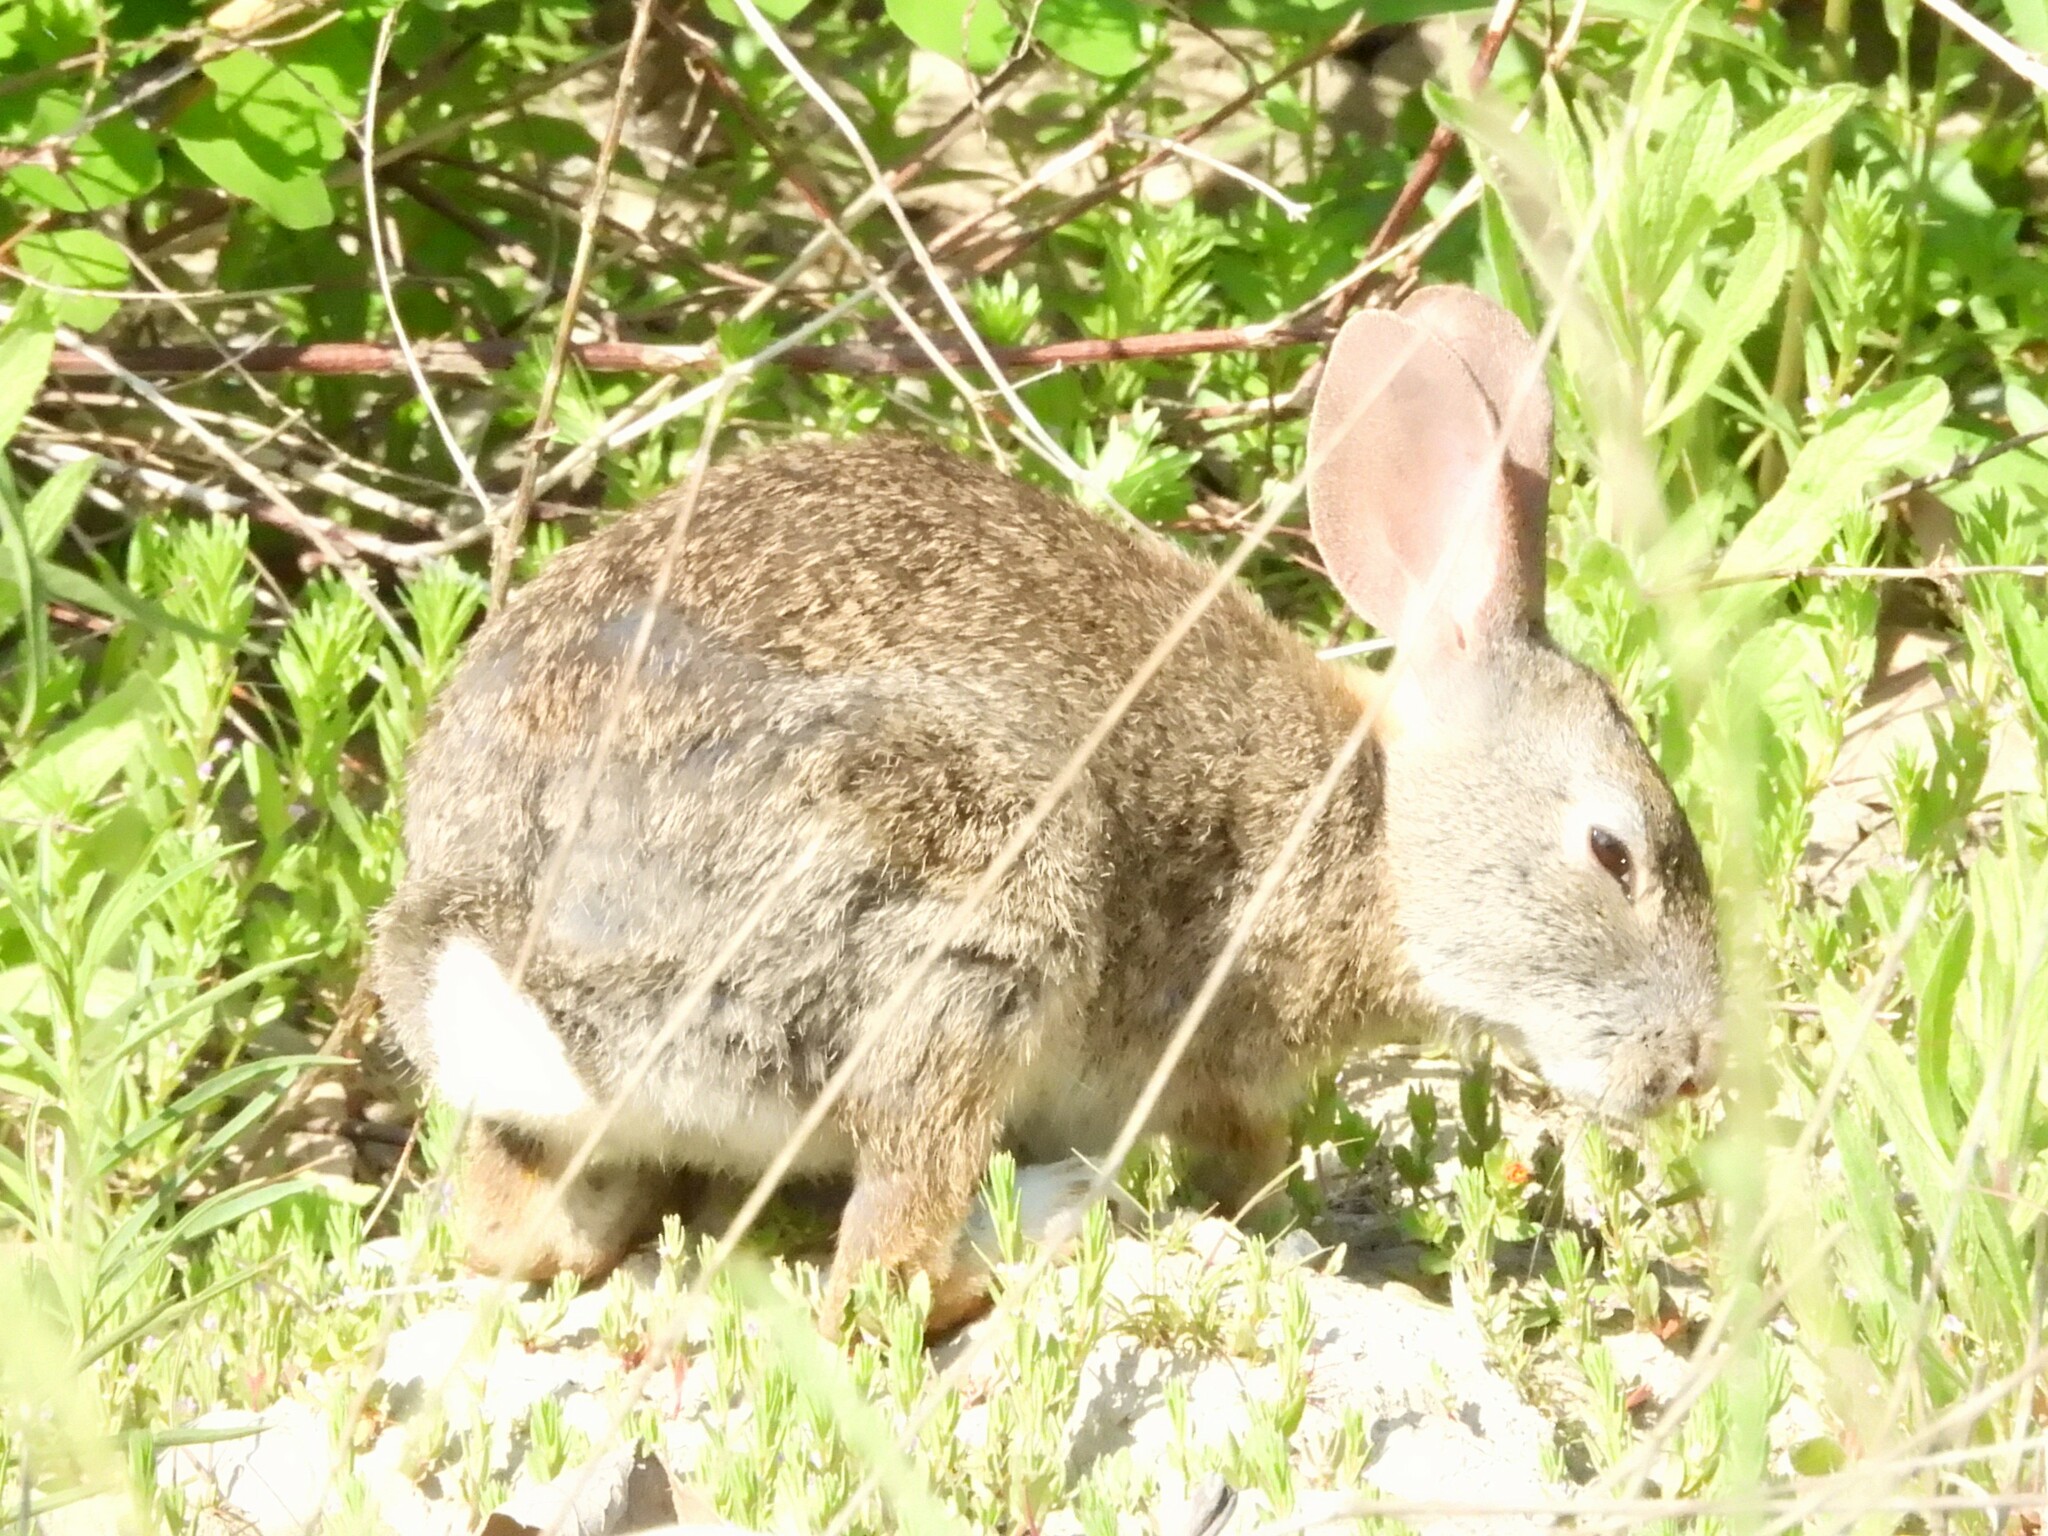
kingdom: Animalia
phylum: Chordata
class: Mammalia
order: Lagomorpha
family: Leporidae
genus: Sylvilagus
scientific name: Sylvilagus bachmani
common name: Brush rabbit
